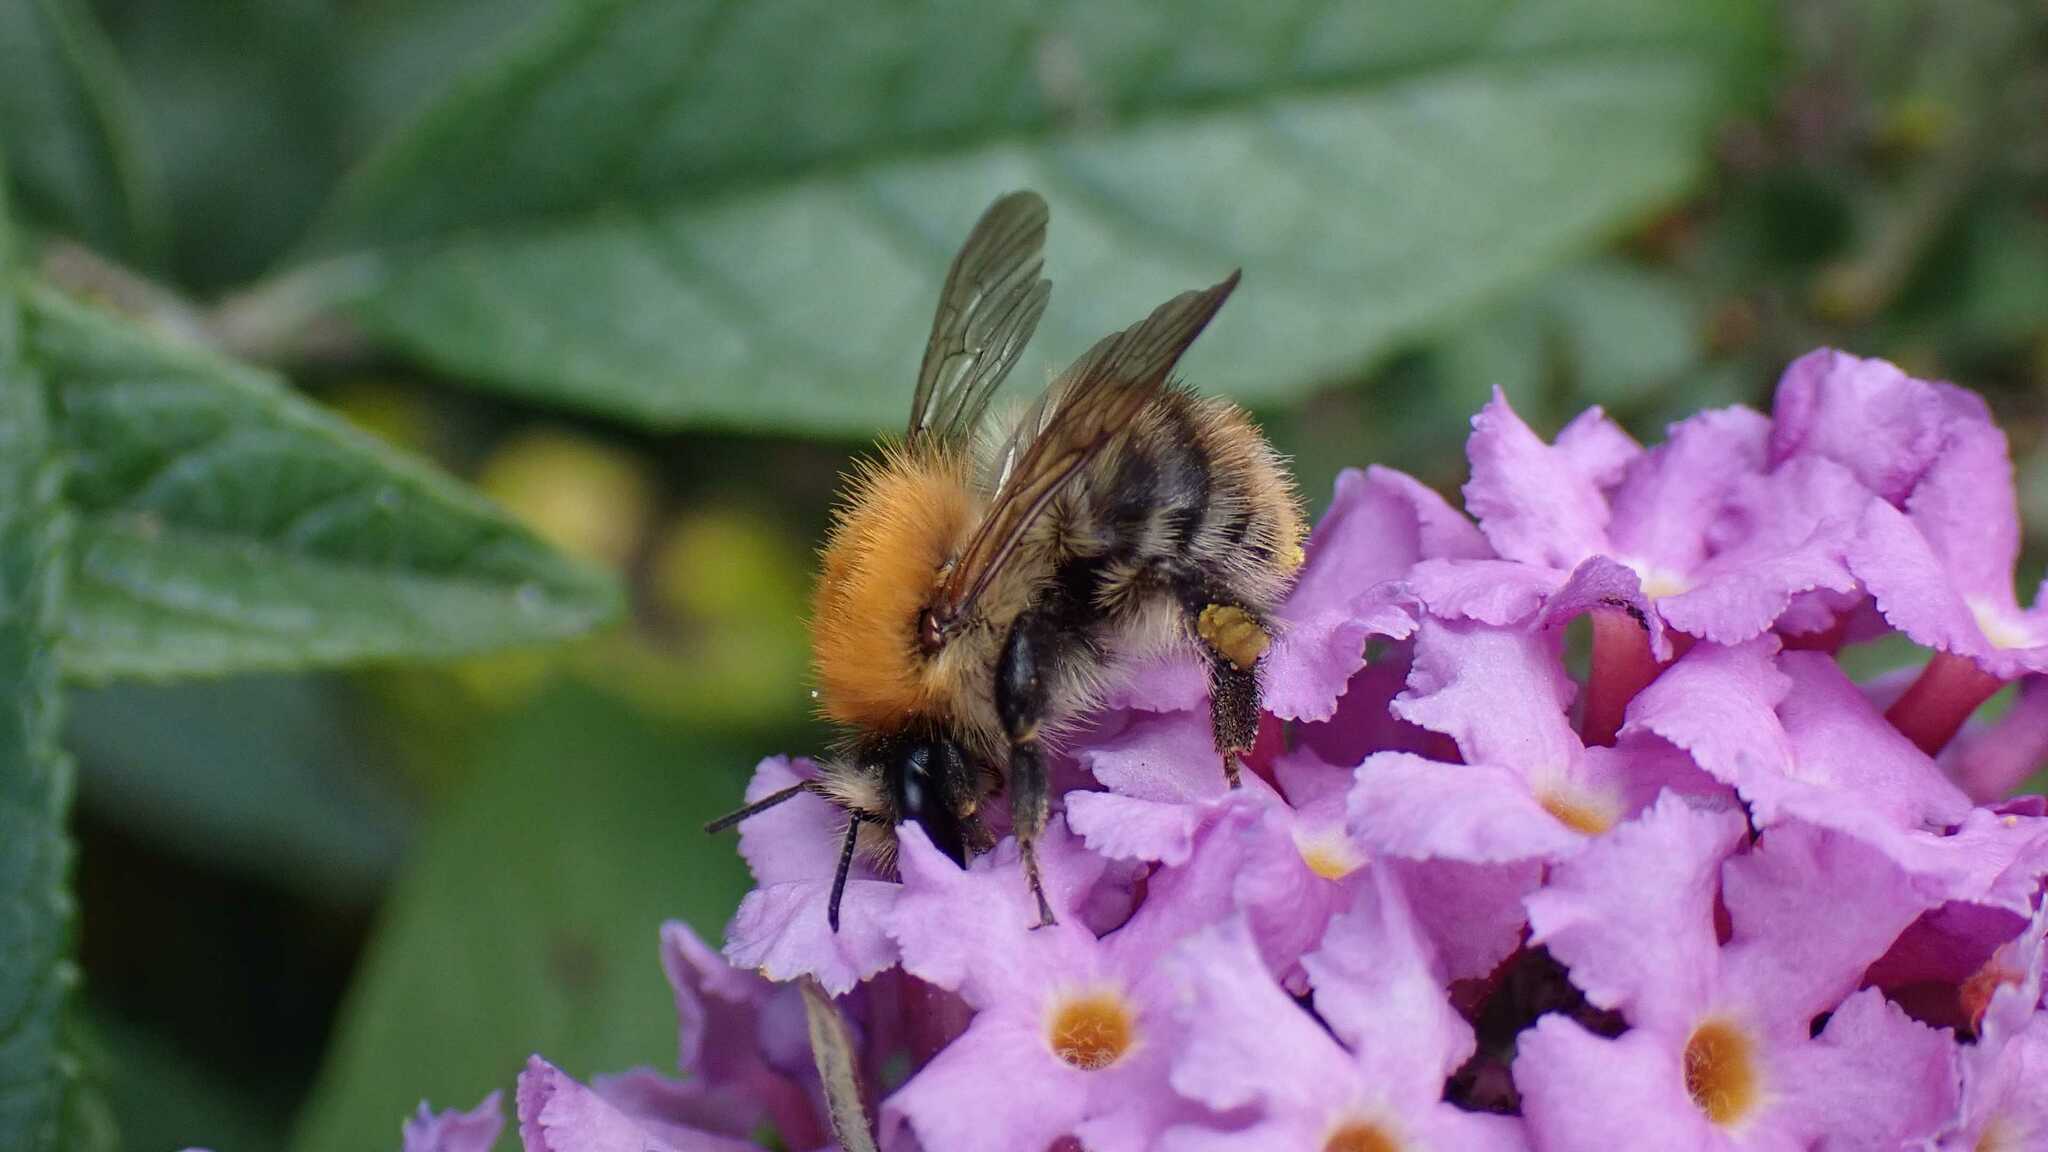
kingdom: Animalia
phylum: Arthropoda
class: Insecta
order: Hymenoptera
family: Apidae
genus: Bombus
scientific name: Bombus pascuorum
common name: Common carder bee
